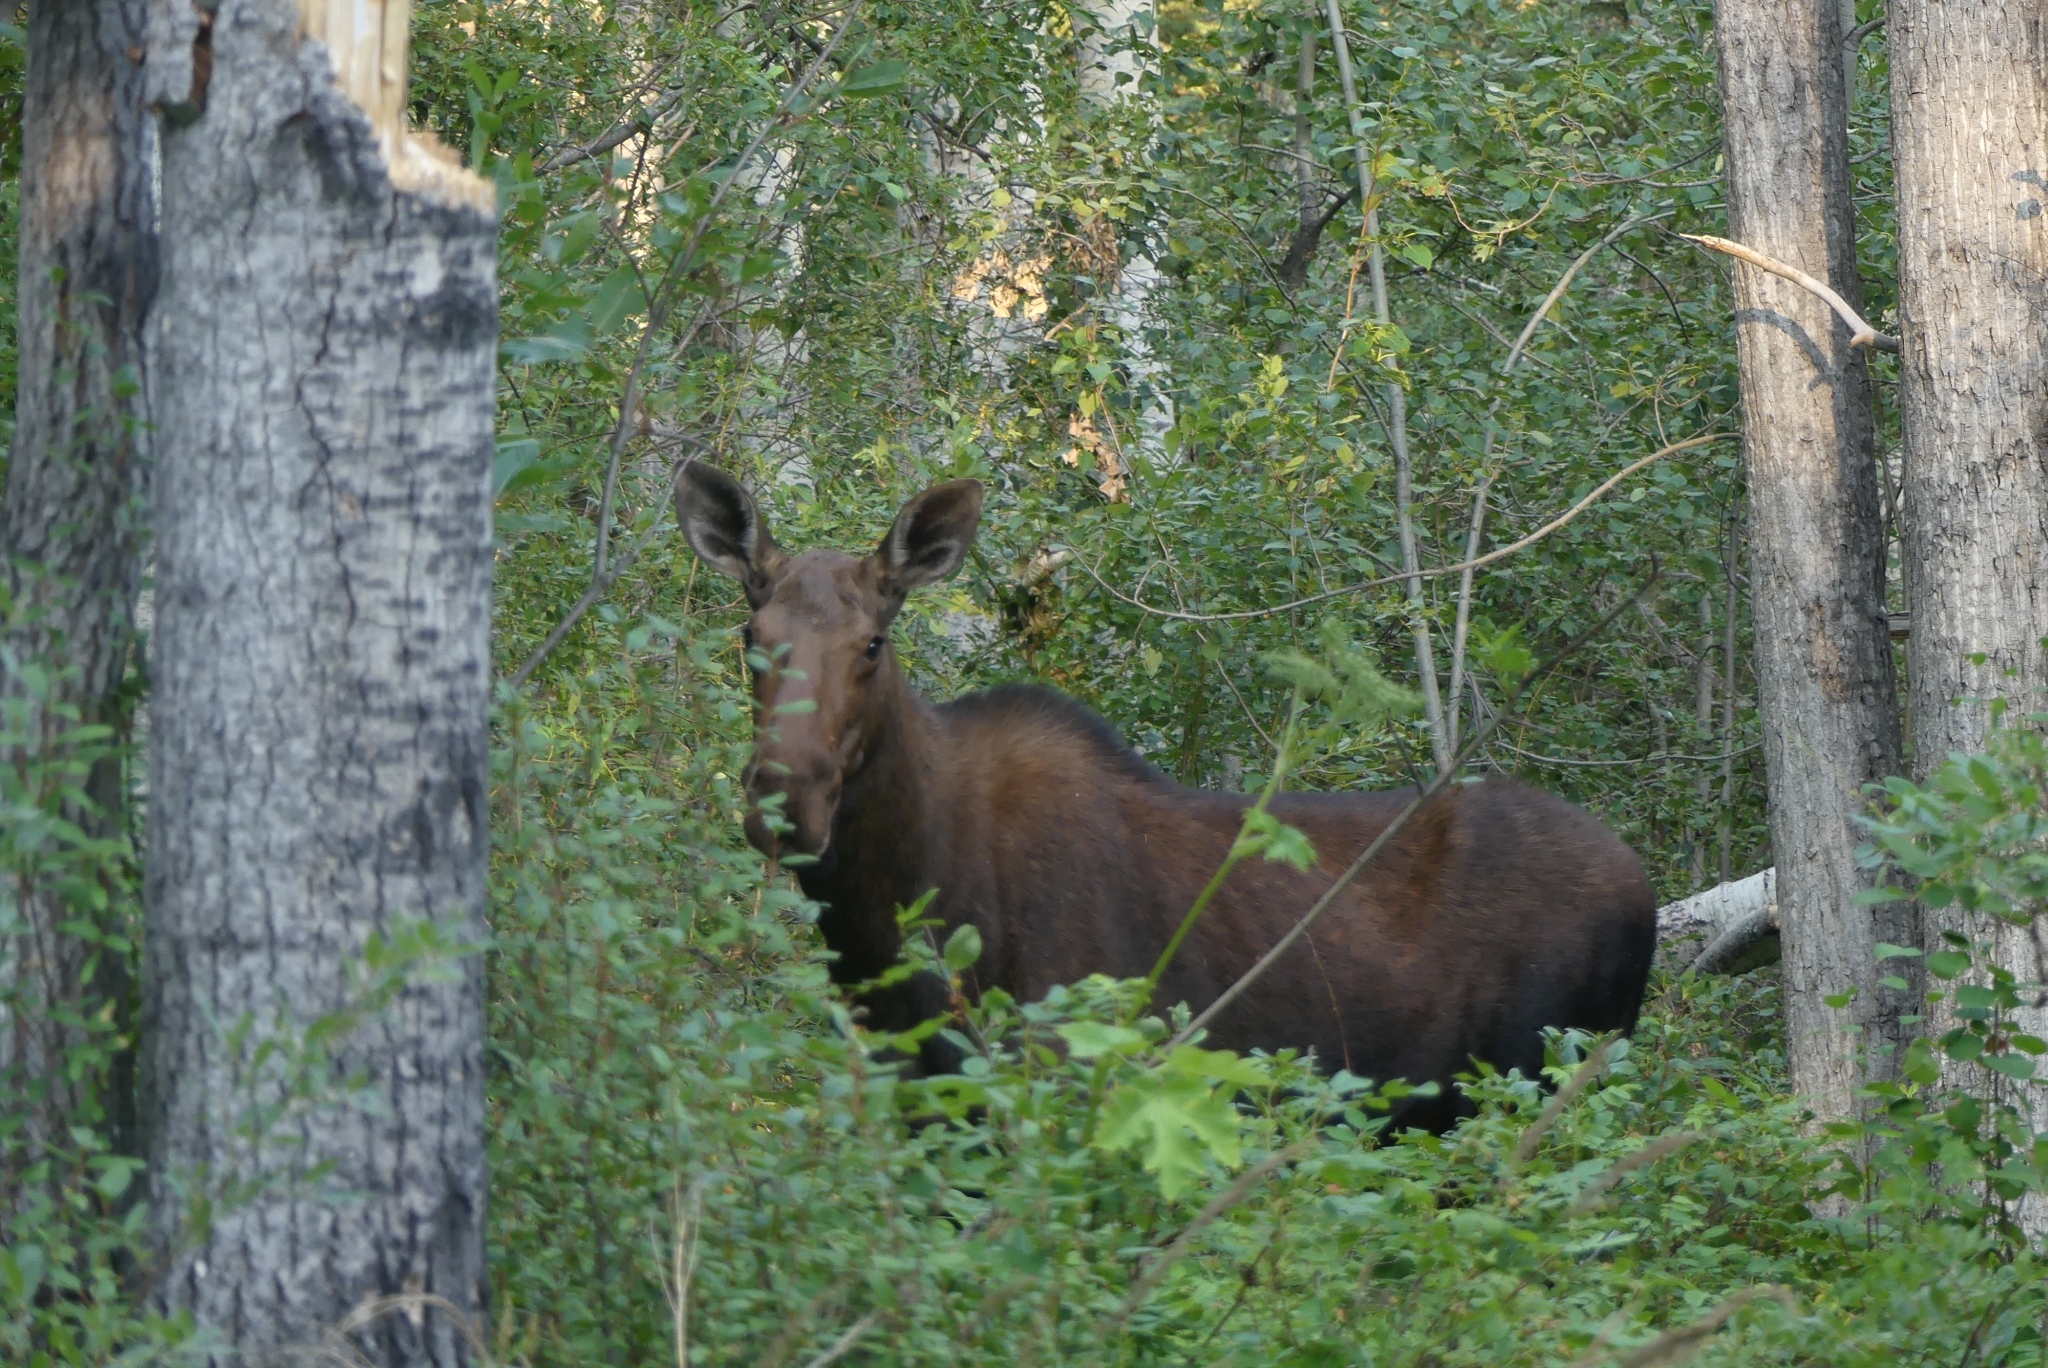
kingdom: Animalia
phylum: Chordata
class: Mammalia
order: Artiodactyla
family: Cervidae
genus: Alces
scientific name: Alces alces
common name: Moose
